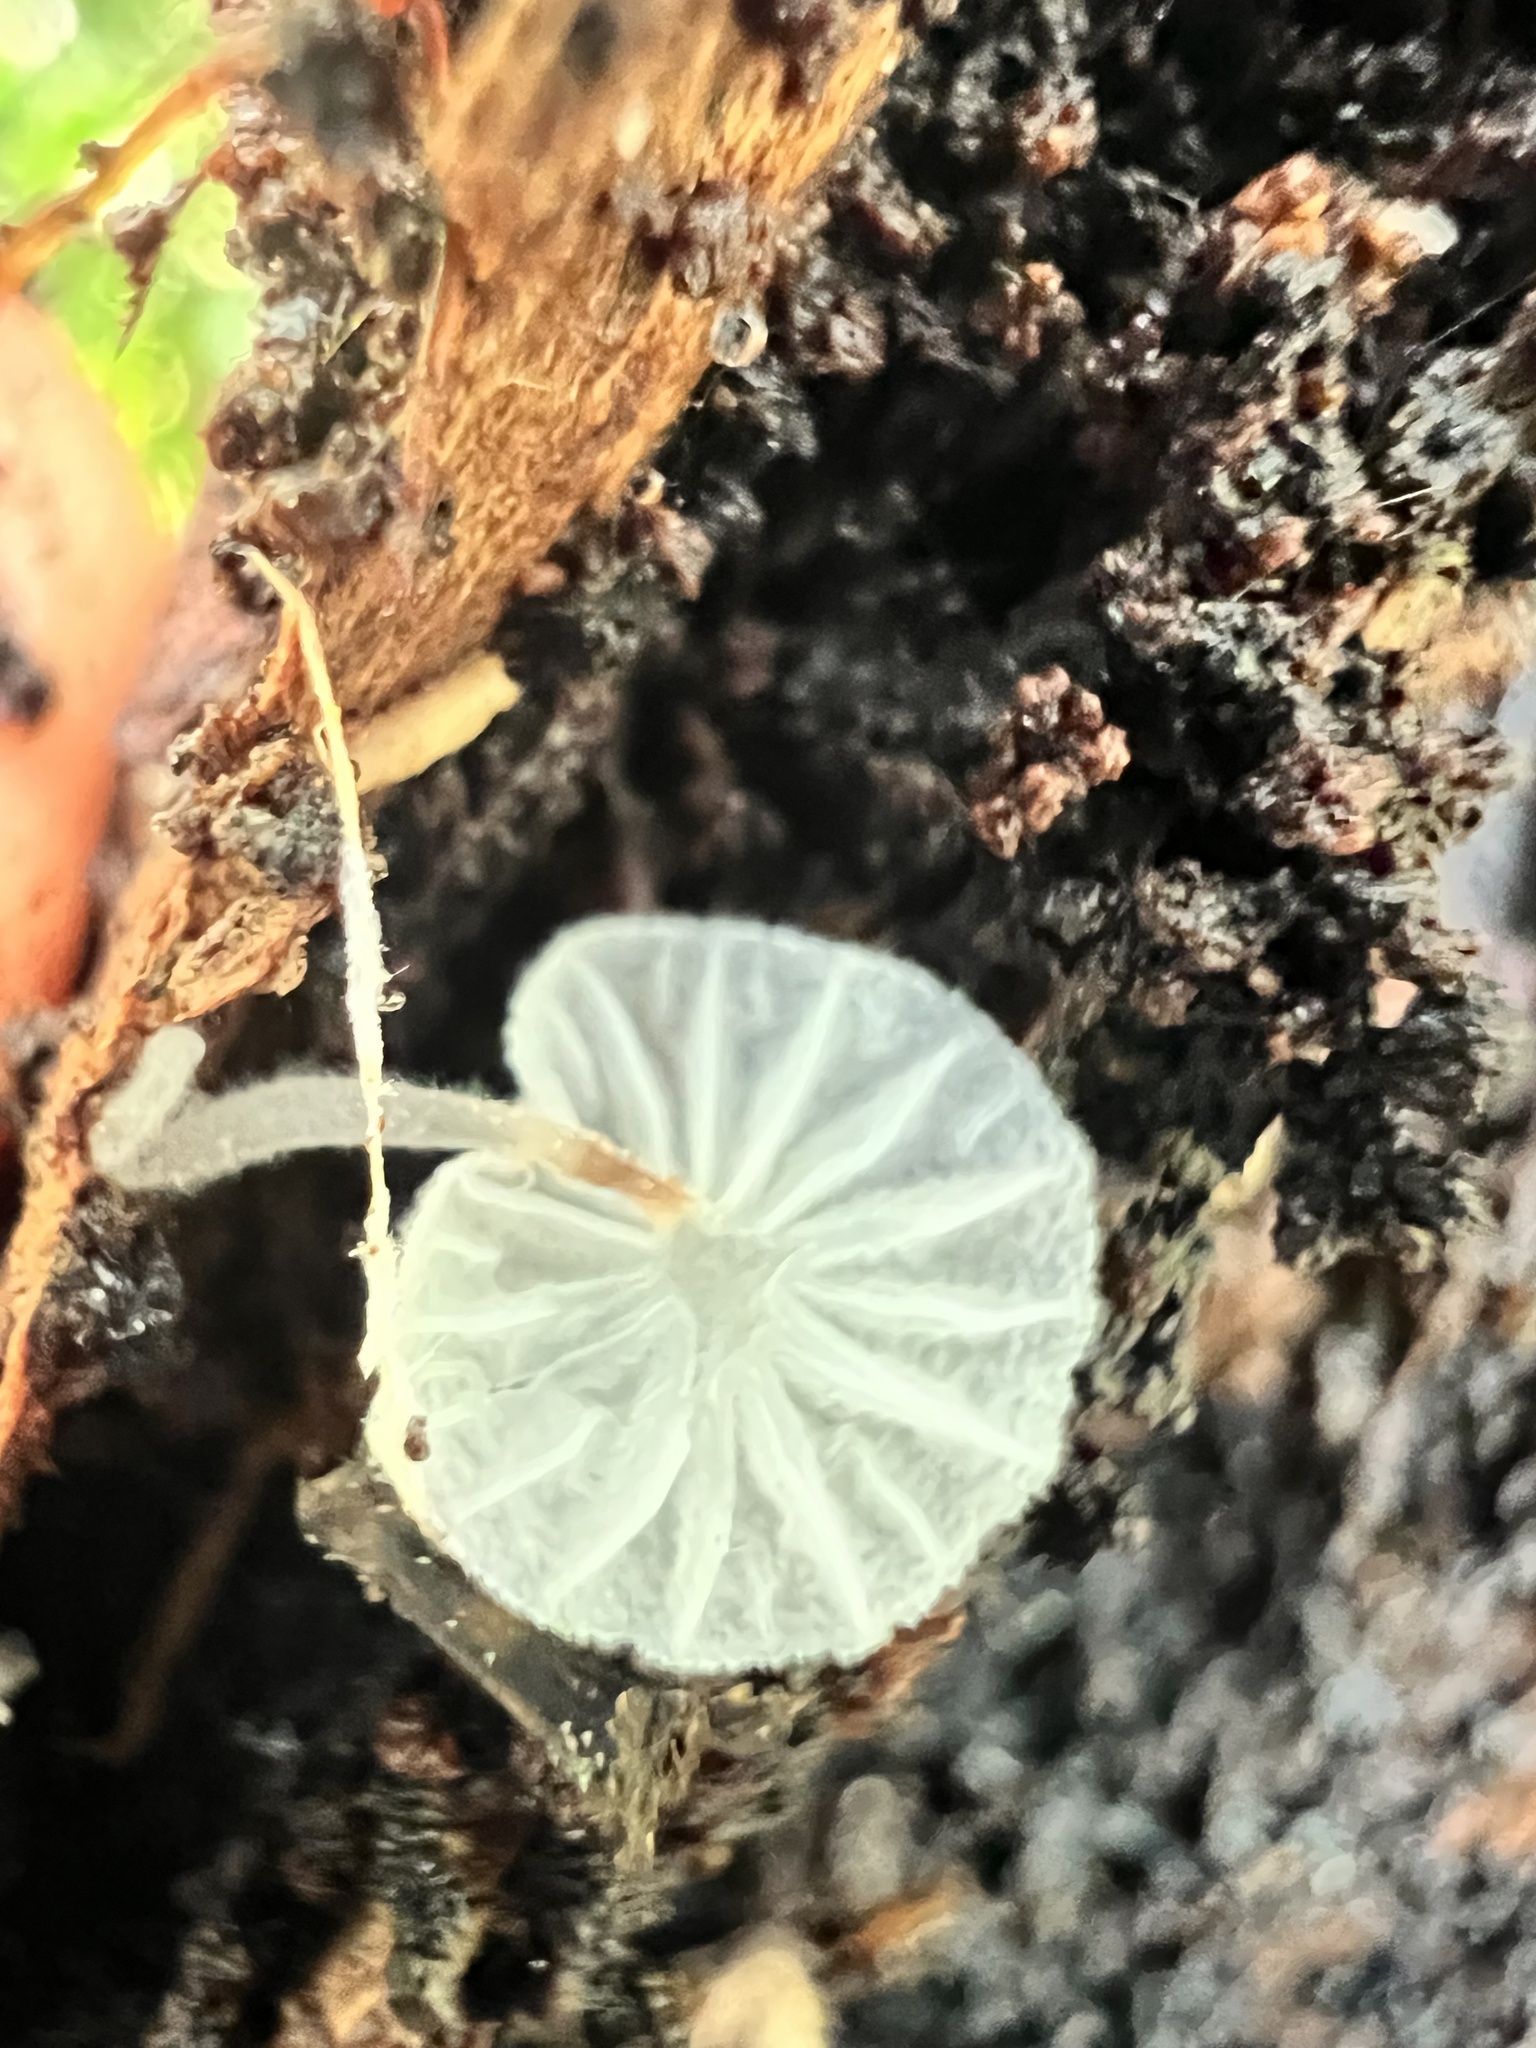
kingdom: Fungi
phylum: Basidiomycota
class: Agaricomycetes
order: Agaricales
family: Porotheleaceae
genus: Porotheleum
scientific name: Porotheleum albodescendens
